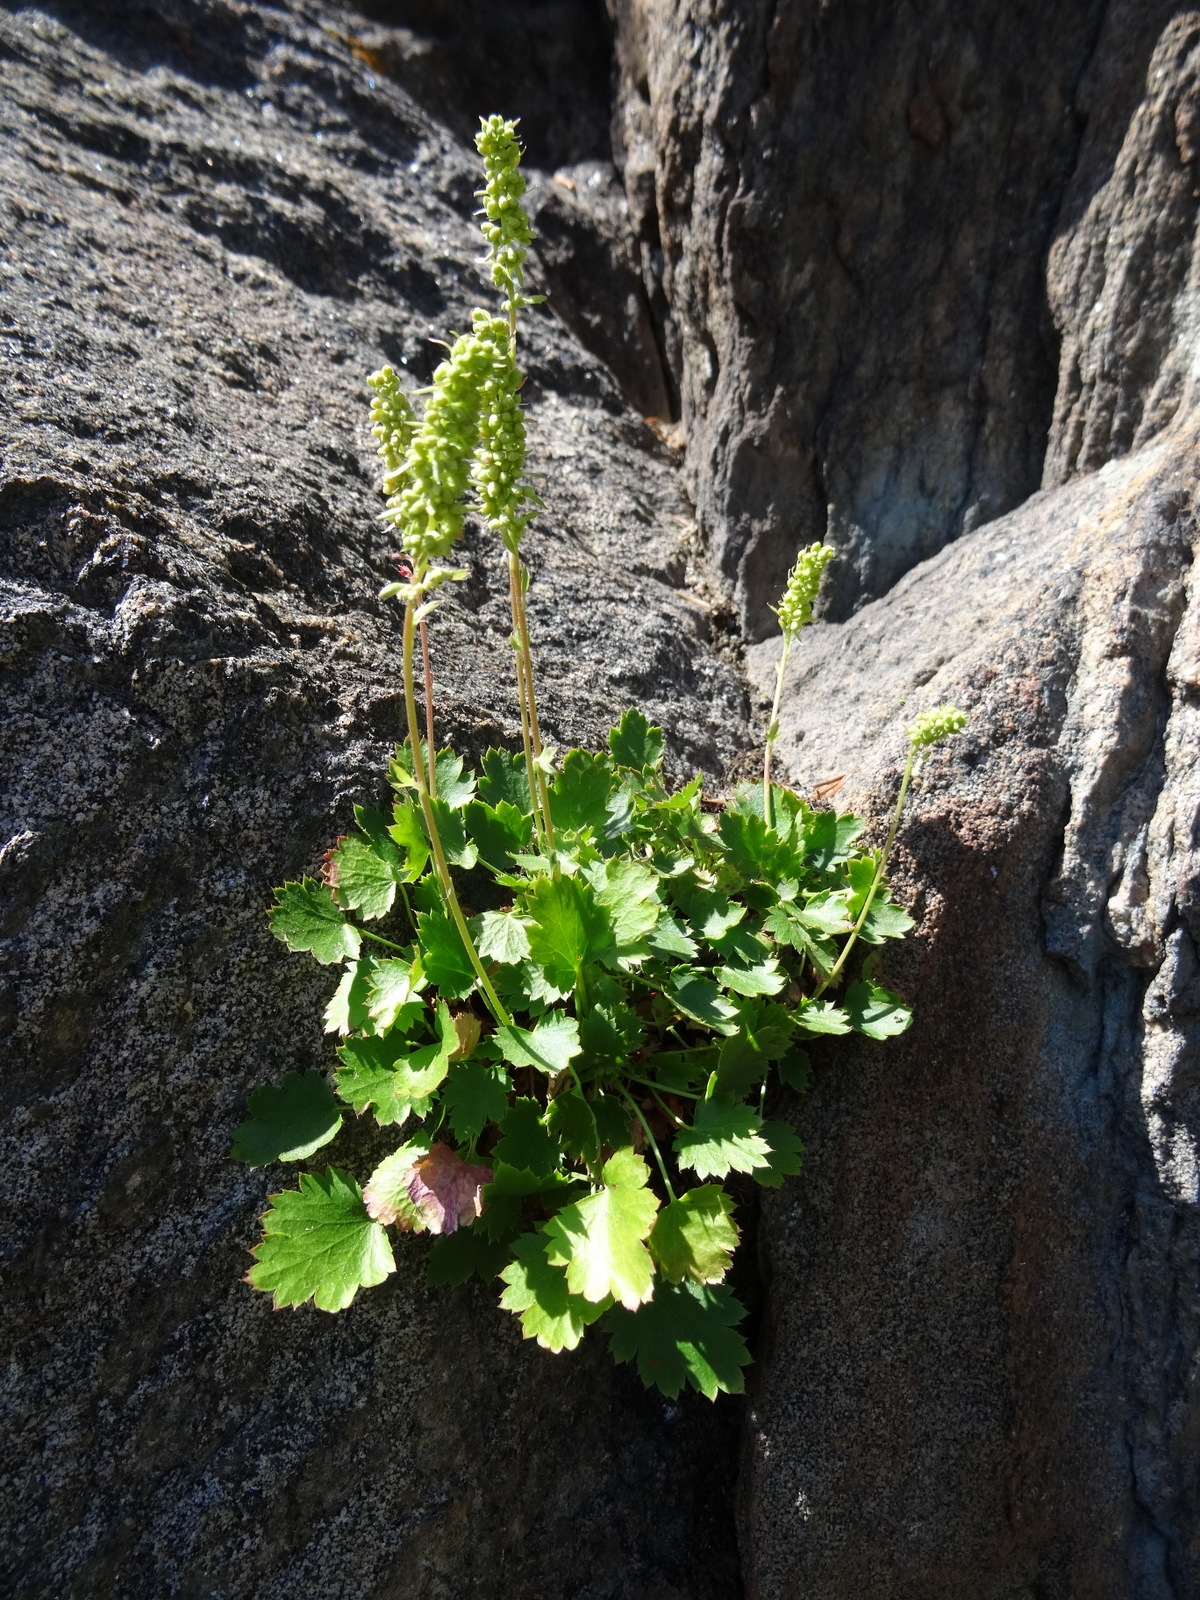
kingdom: Plantae
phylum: Tracheophyta
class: Magnoliopsida
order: Saxifragales
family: Saxifragaceae
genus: Heuchera
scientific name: Heuchera bracteata
